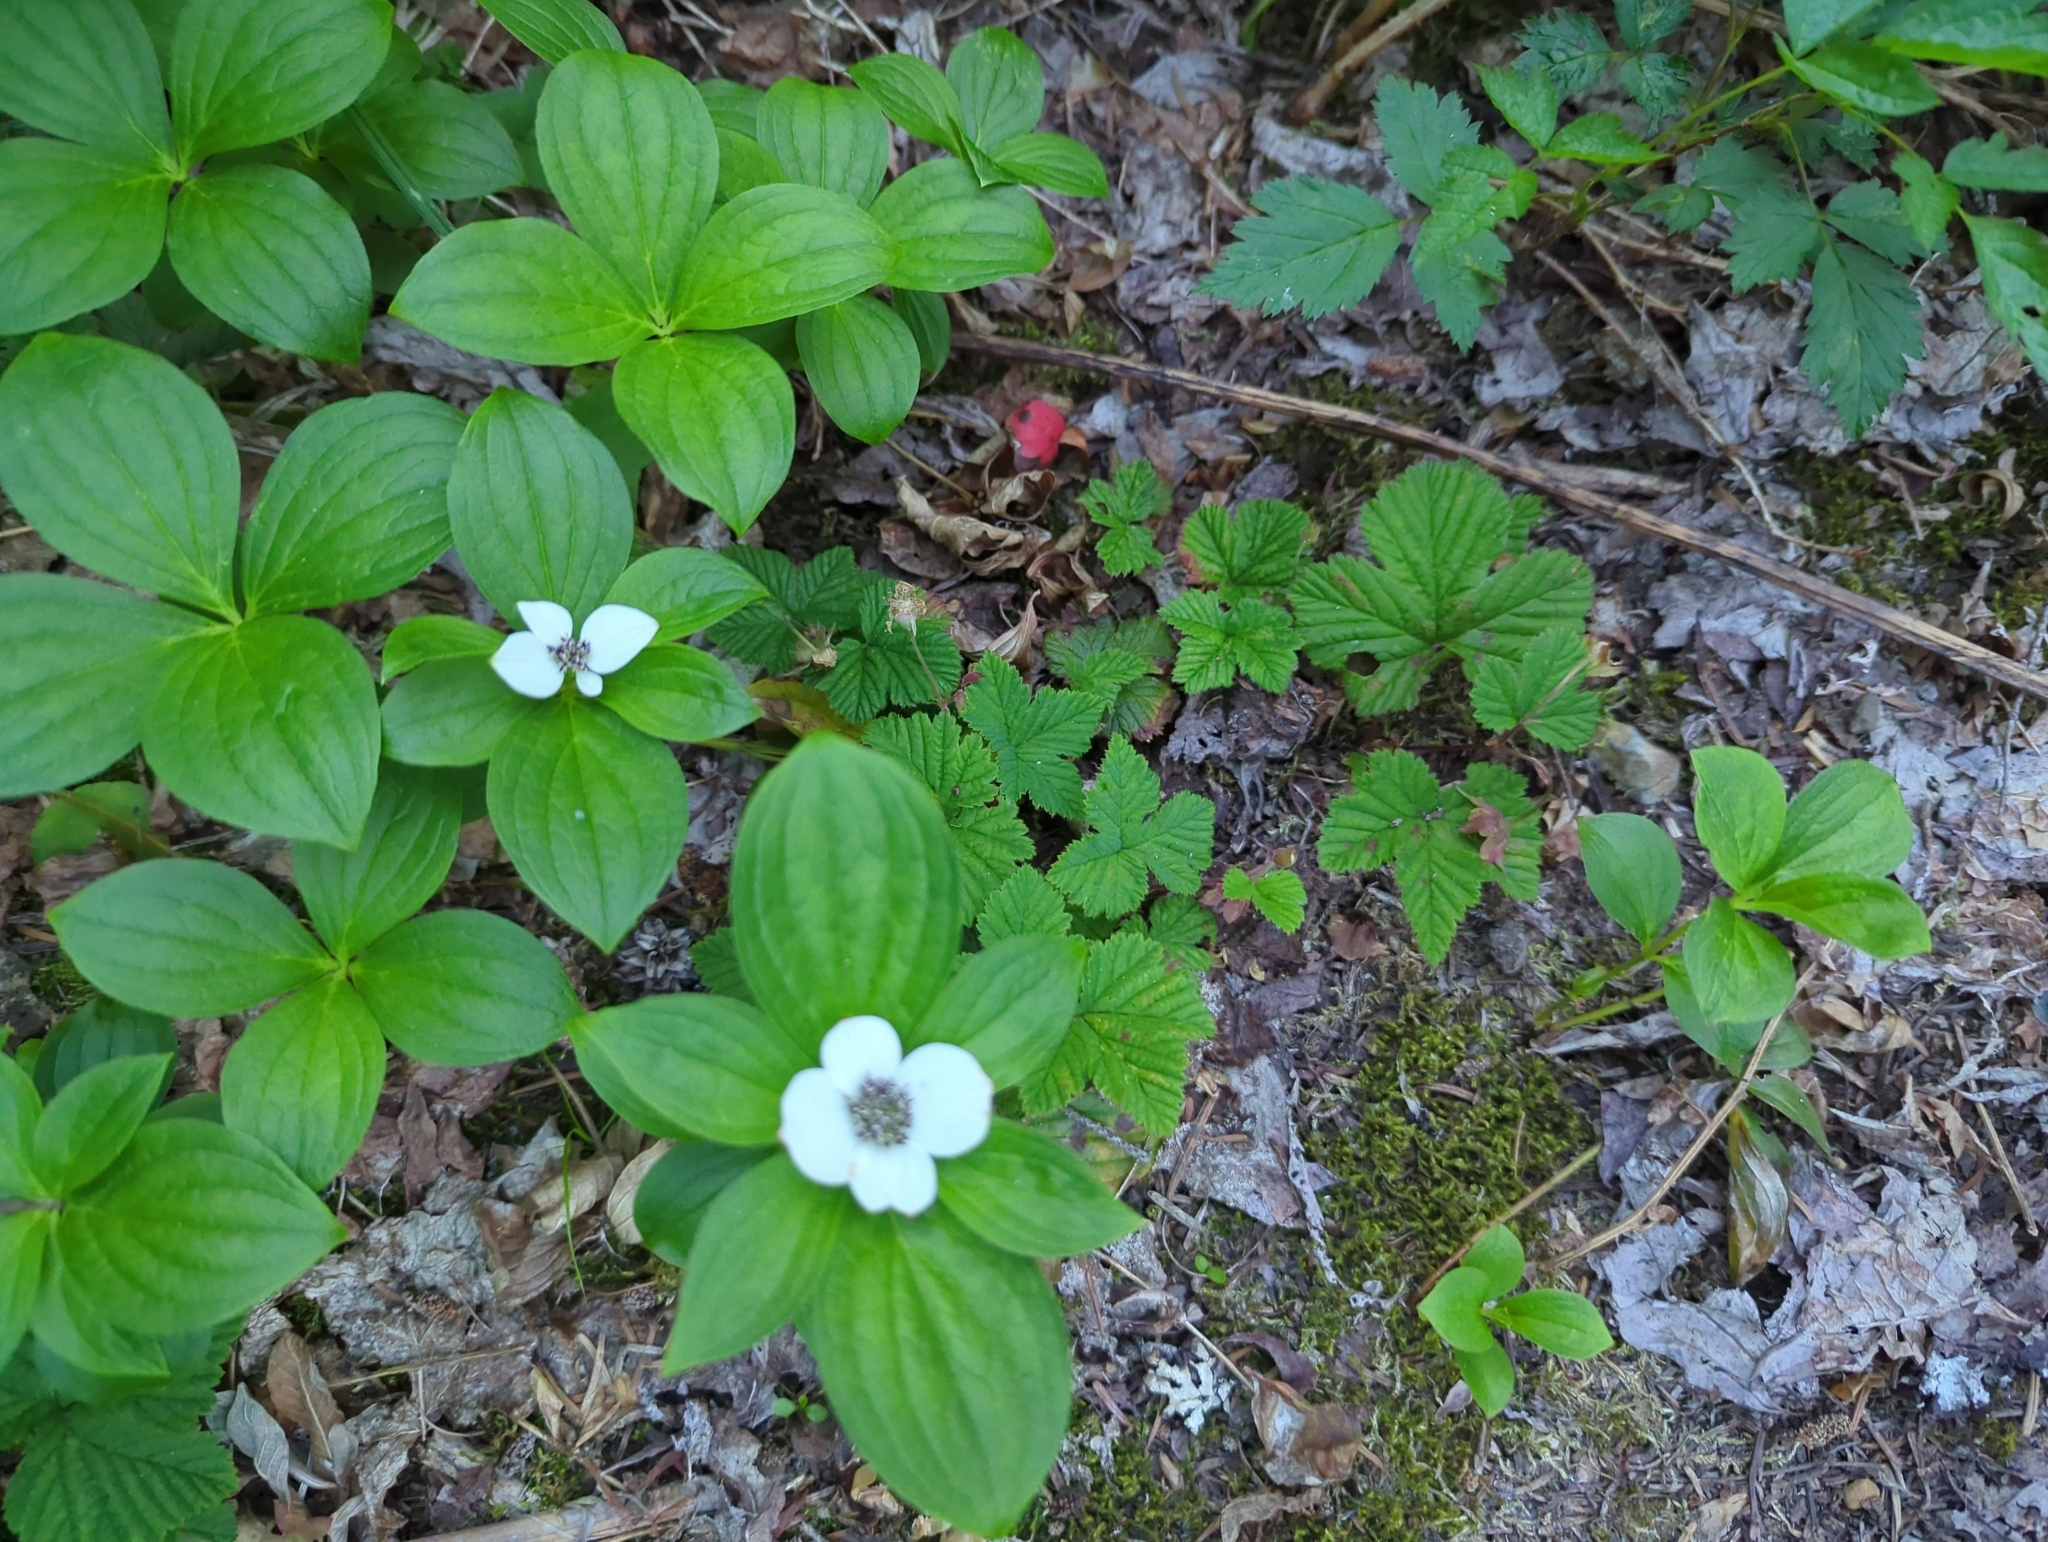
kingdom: Plantae
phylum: Tracheophyta
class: Magnoliopsida
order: Cornales
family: Cornaceae
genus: Cornus
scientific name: Cornus unalaschkensis
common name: Alaska bunchberry
